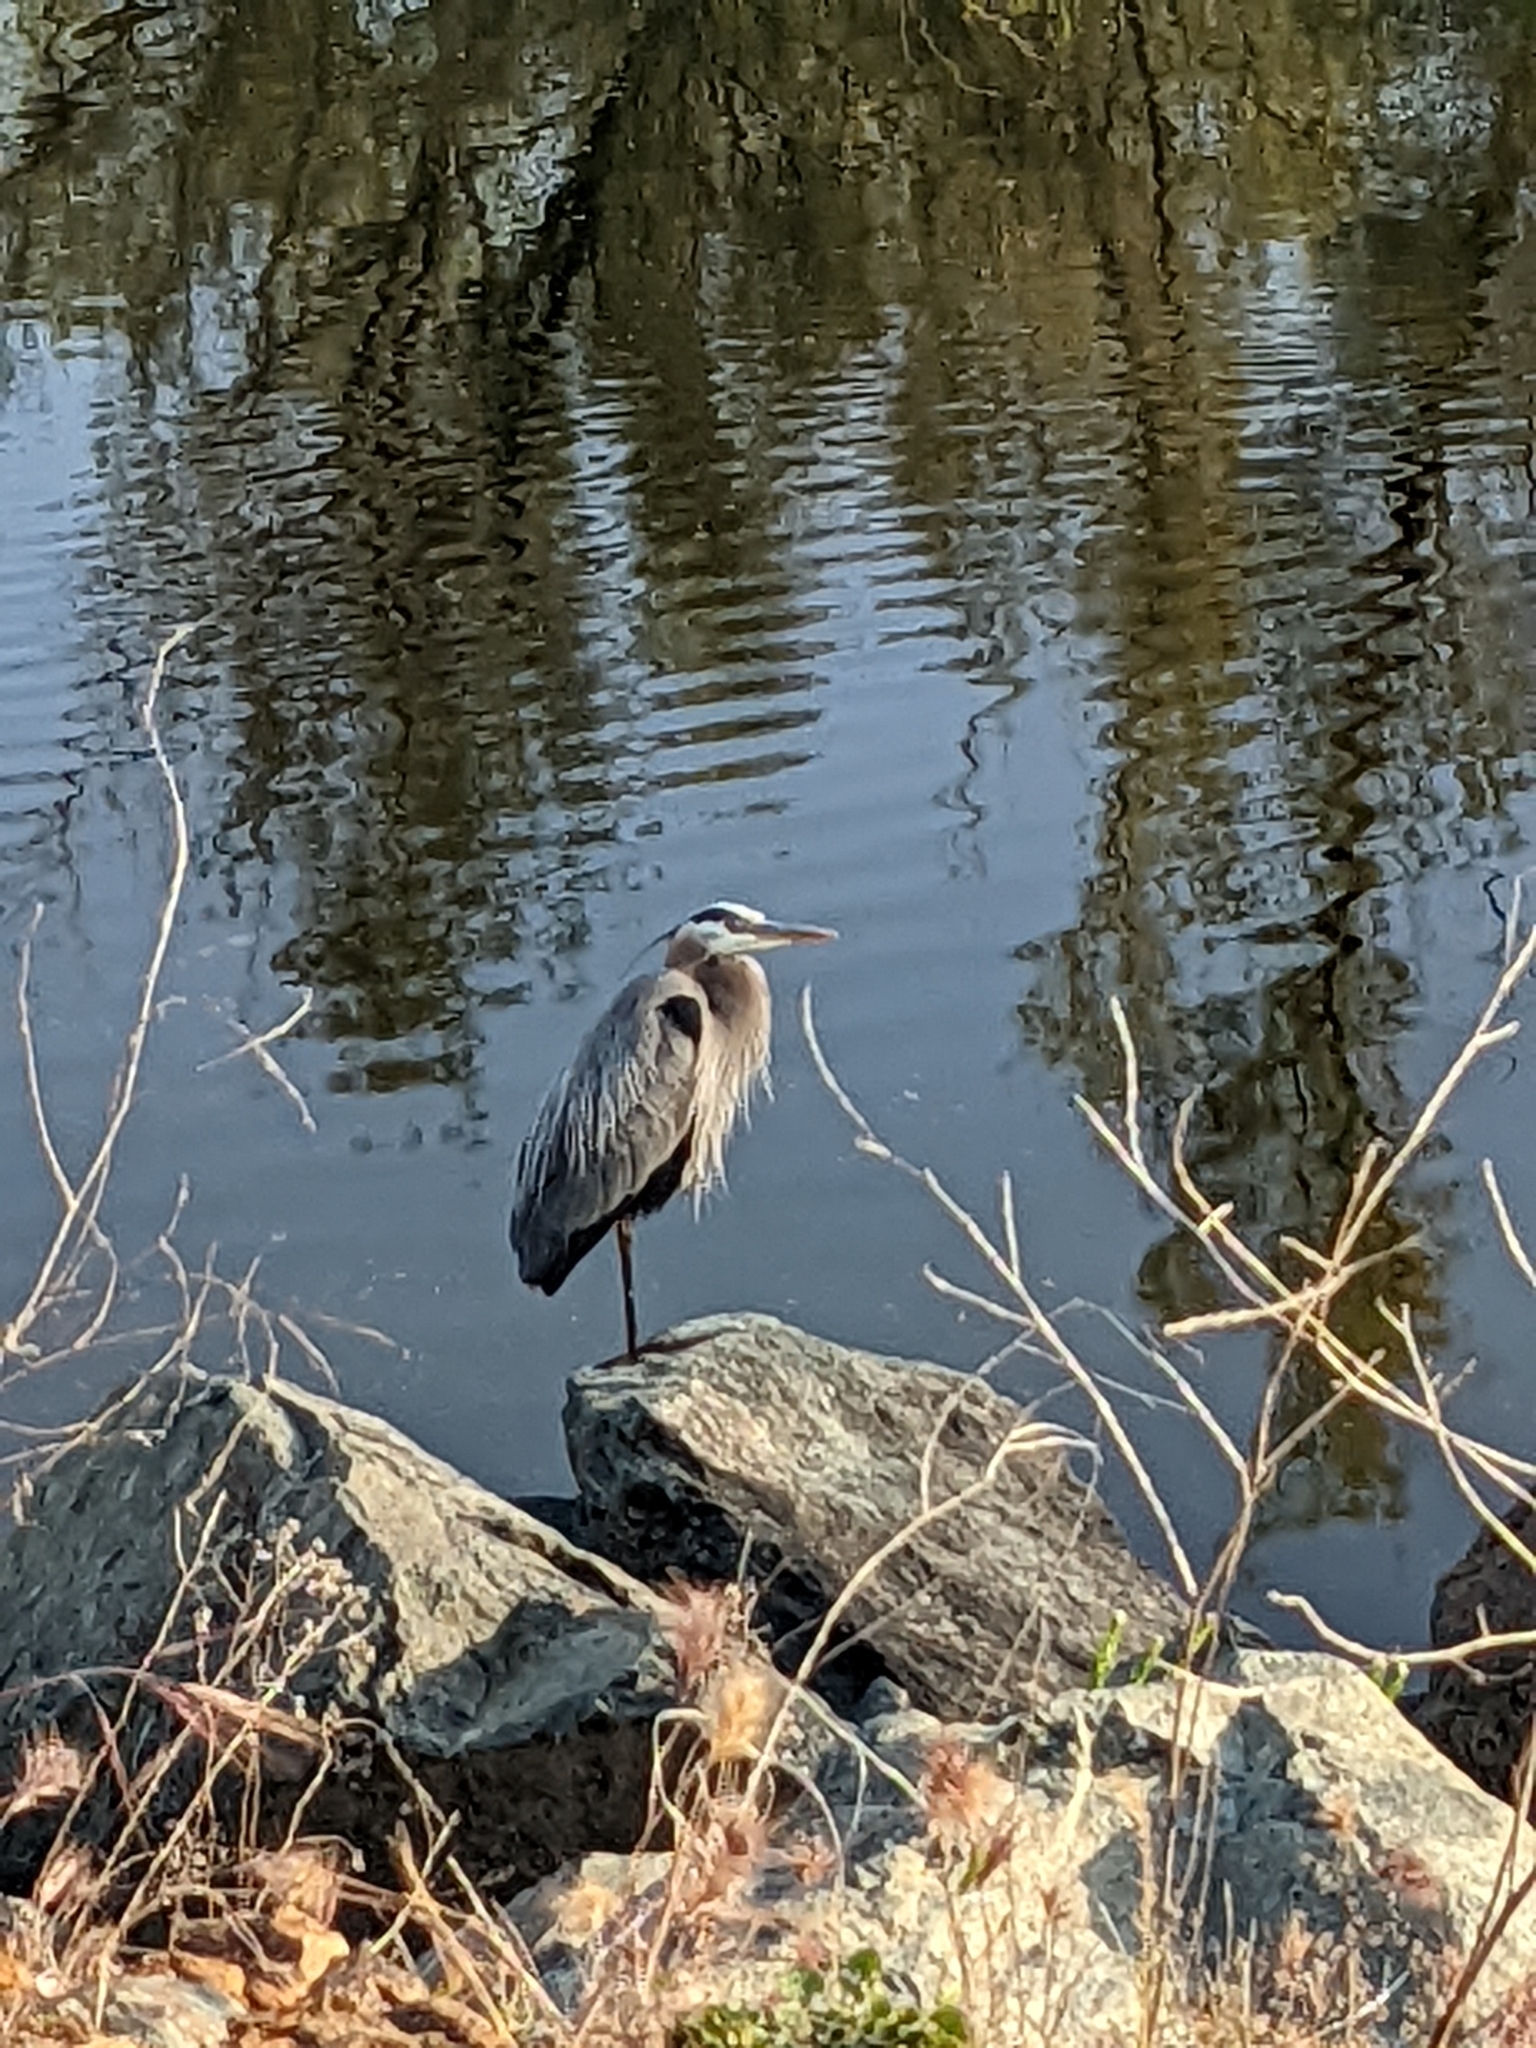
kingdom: Animalia
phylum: Chordata
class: Aves
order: Pelecaniformes
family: Ardeidae
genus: Ardea
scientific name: Ardea herodias
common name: Great blue heron
